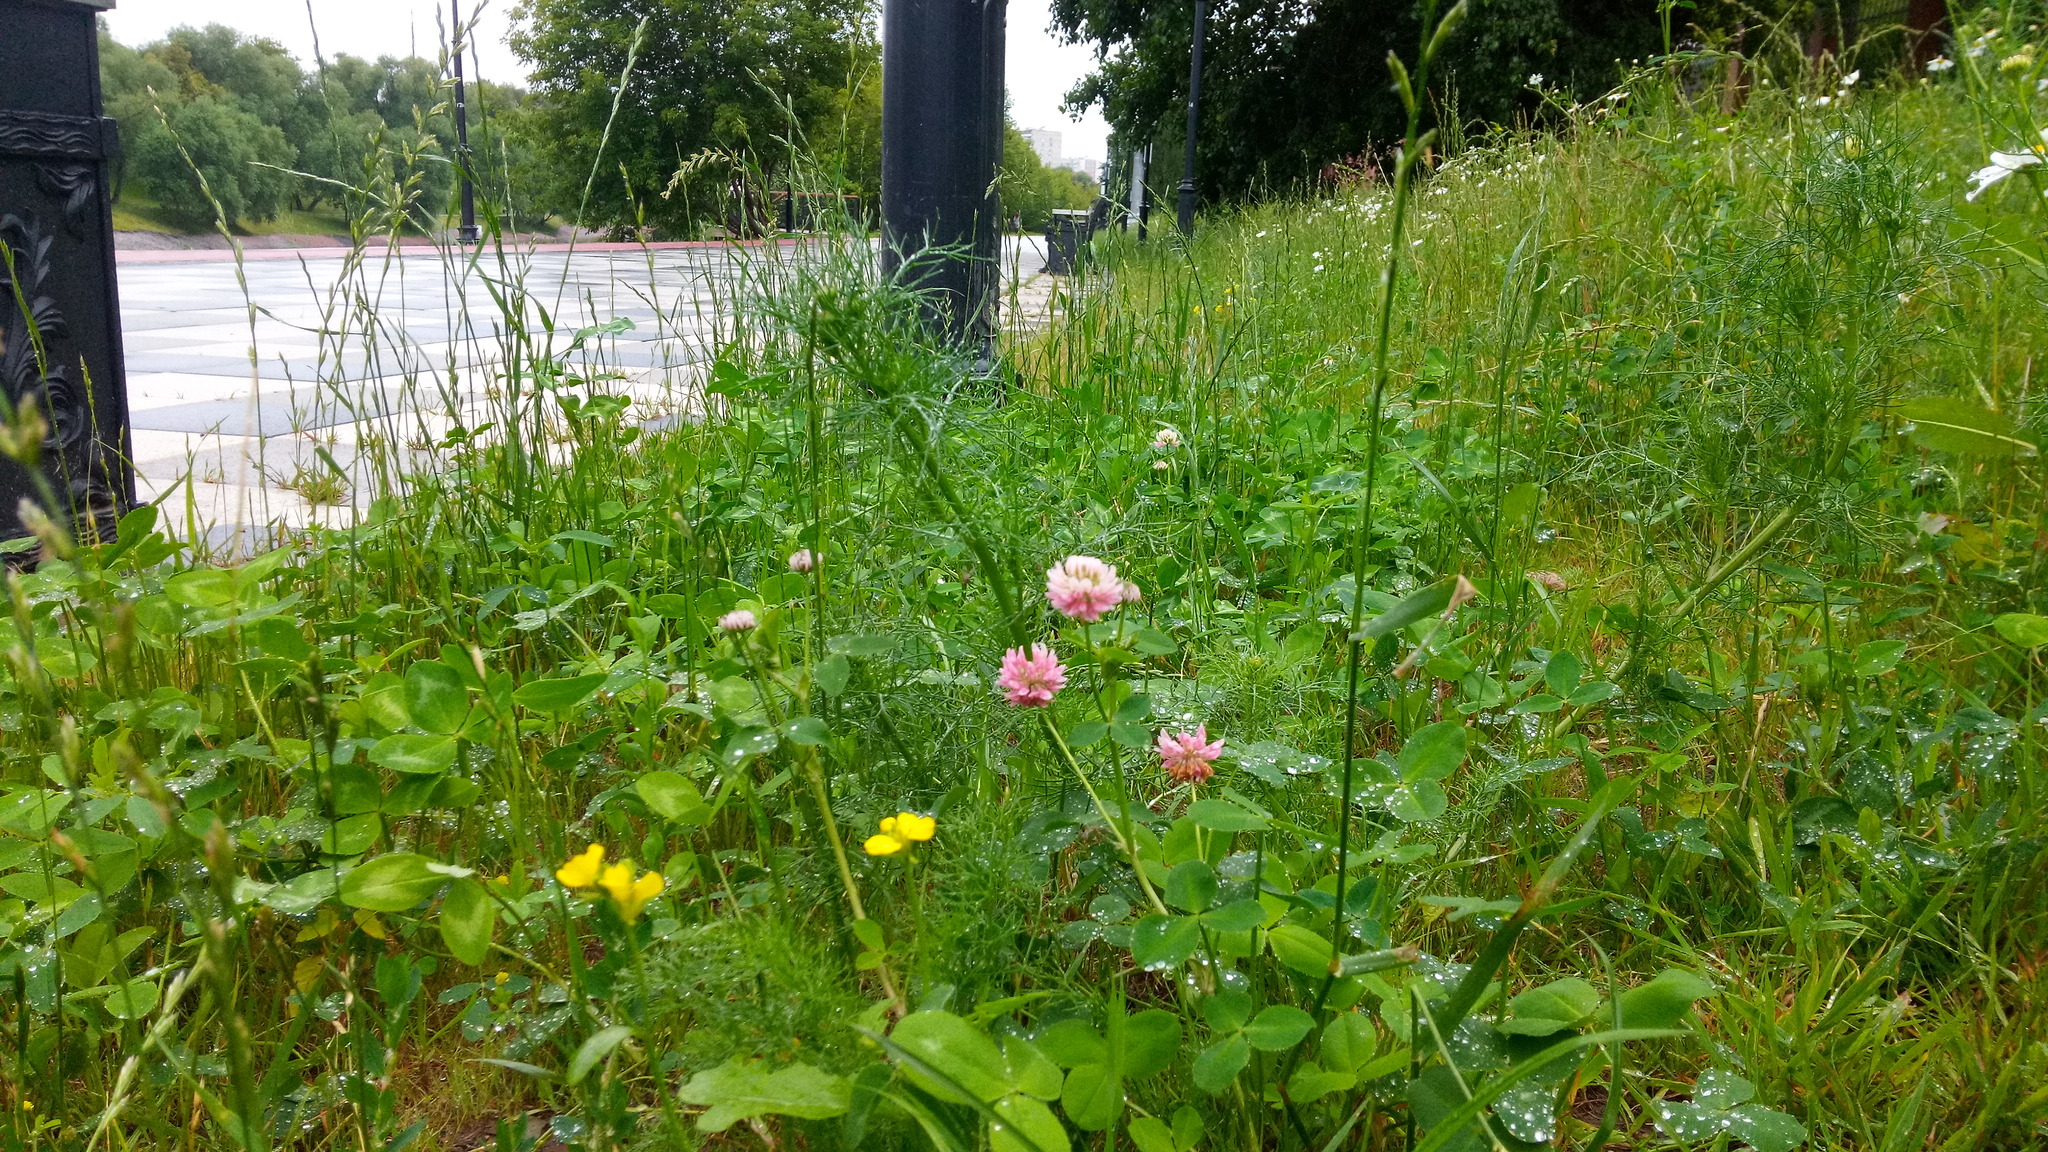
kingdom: Plantae
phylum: Tracheophyta
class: Magnoliopsida
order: Fabales
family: Fabaceae
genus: Trifolium
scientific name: Trifolium hybridum
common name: Alsike clover
